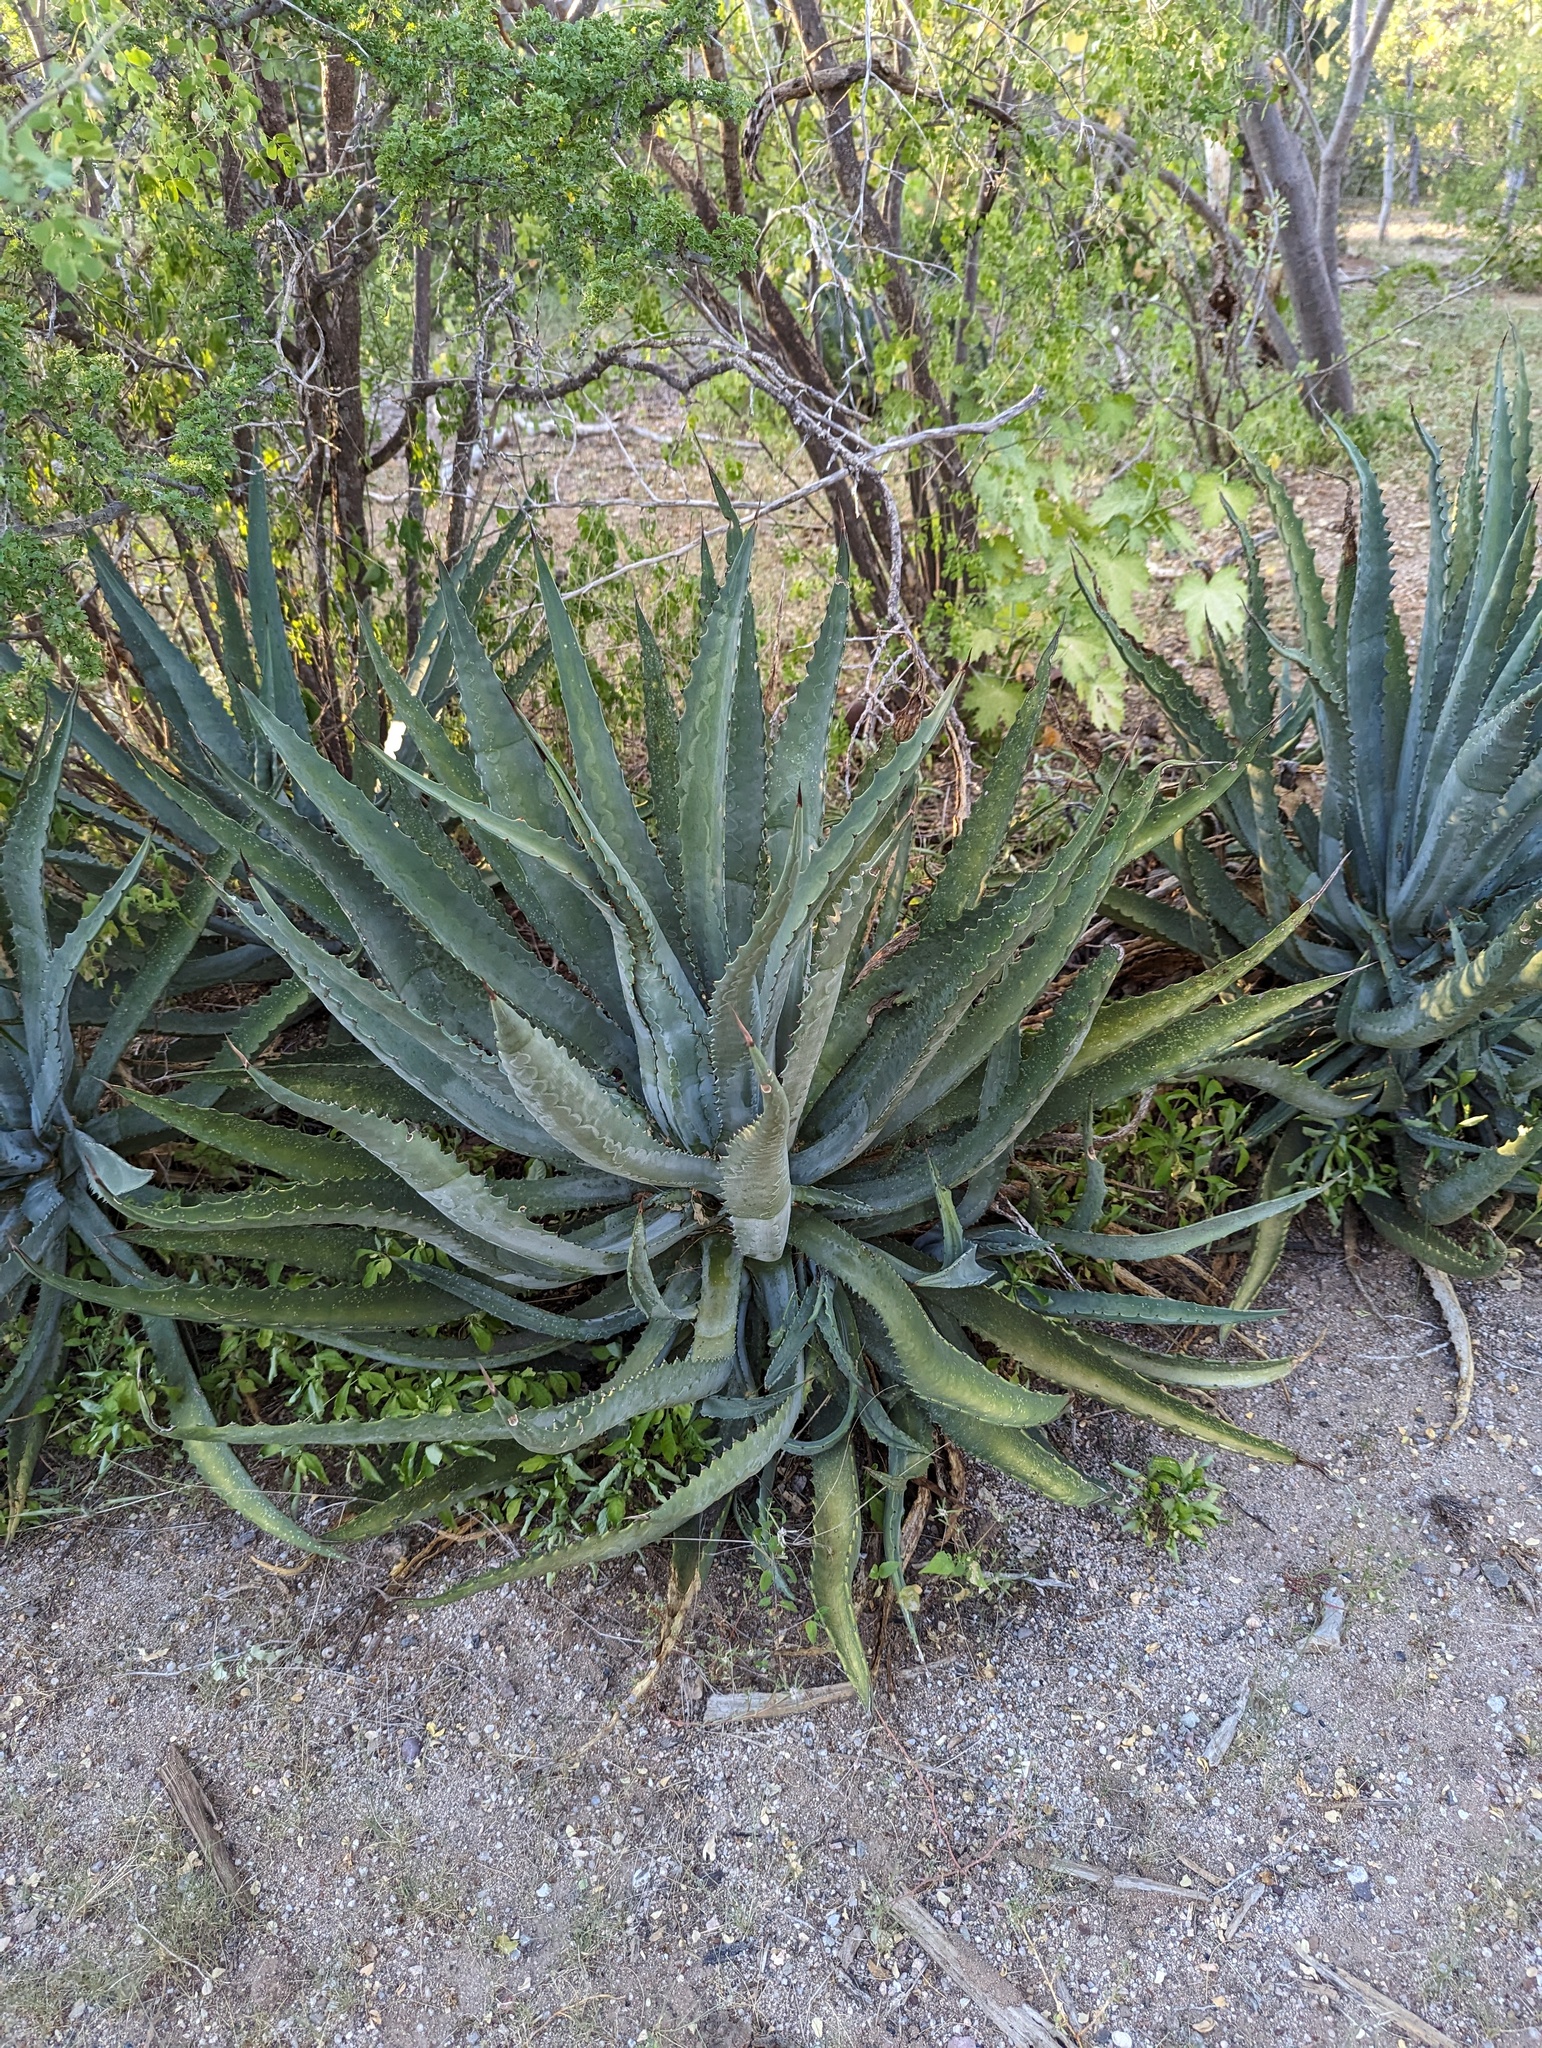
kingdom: Plantae
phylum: Tracheophyta
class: Liliopsida
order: Asparagales
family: Asparagaceae
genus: Agave
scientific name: Agave aurea
